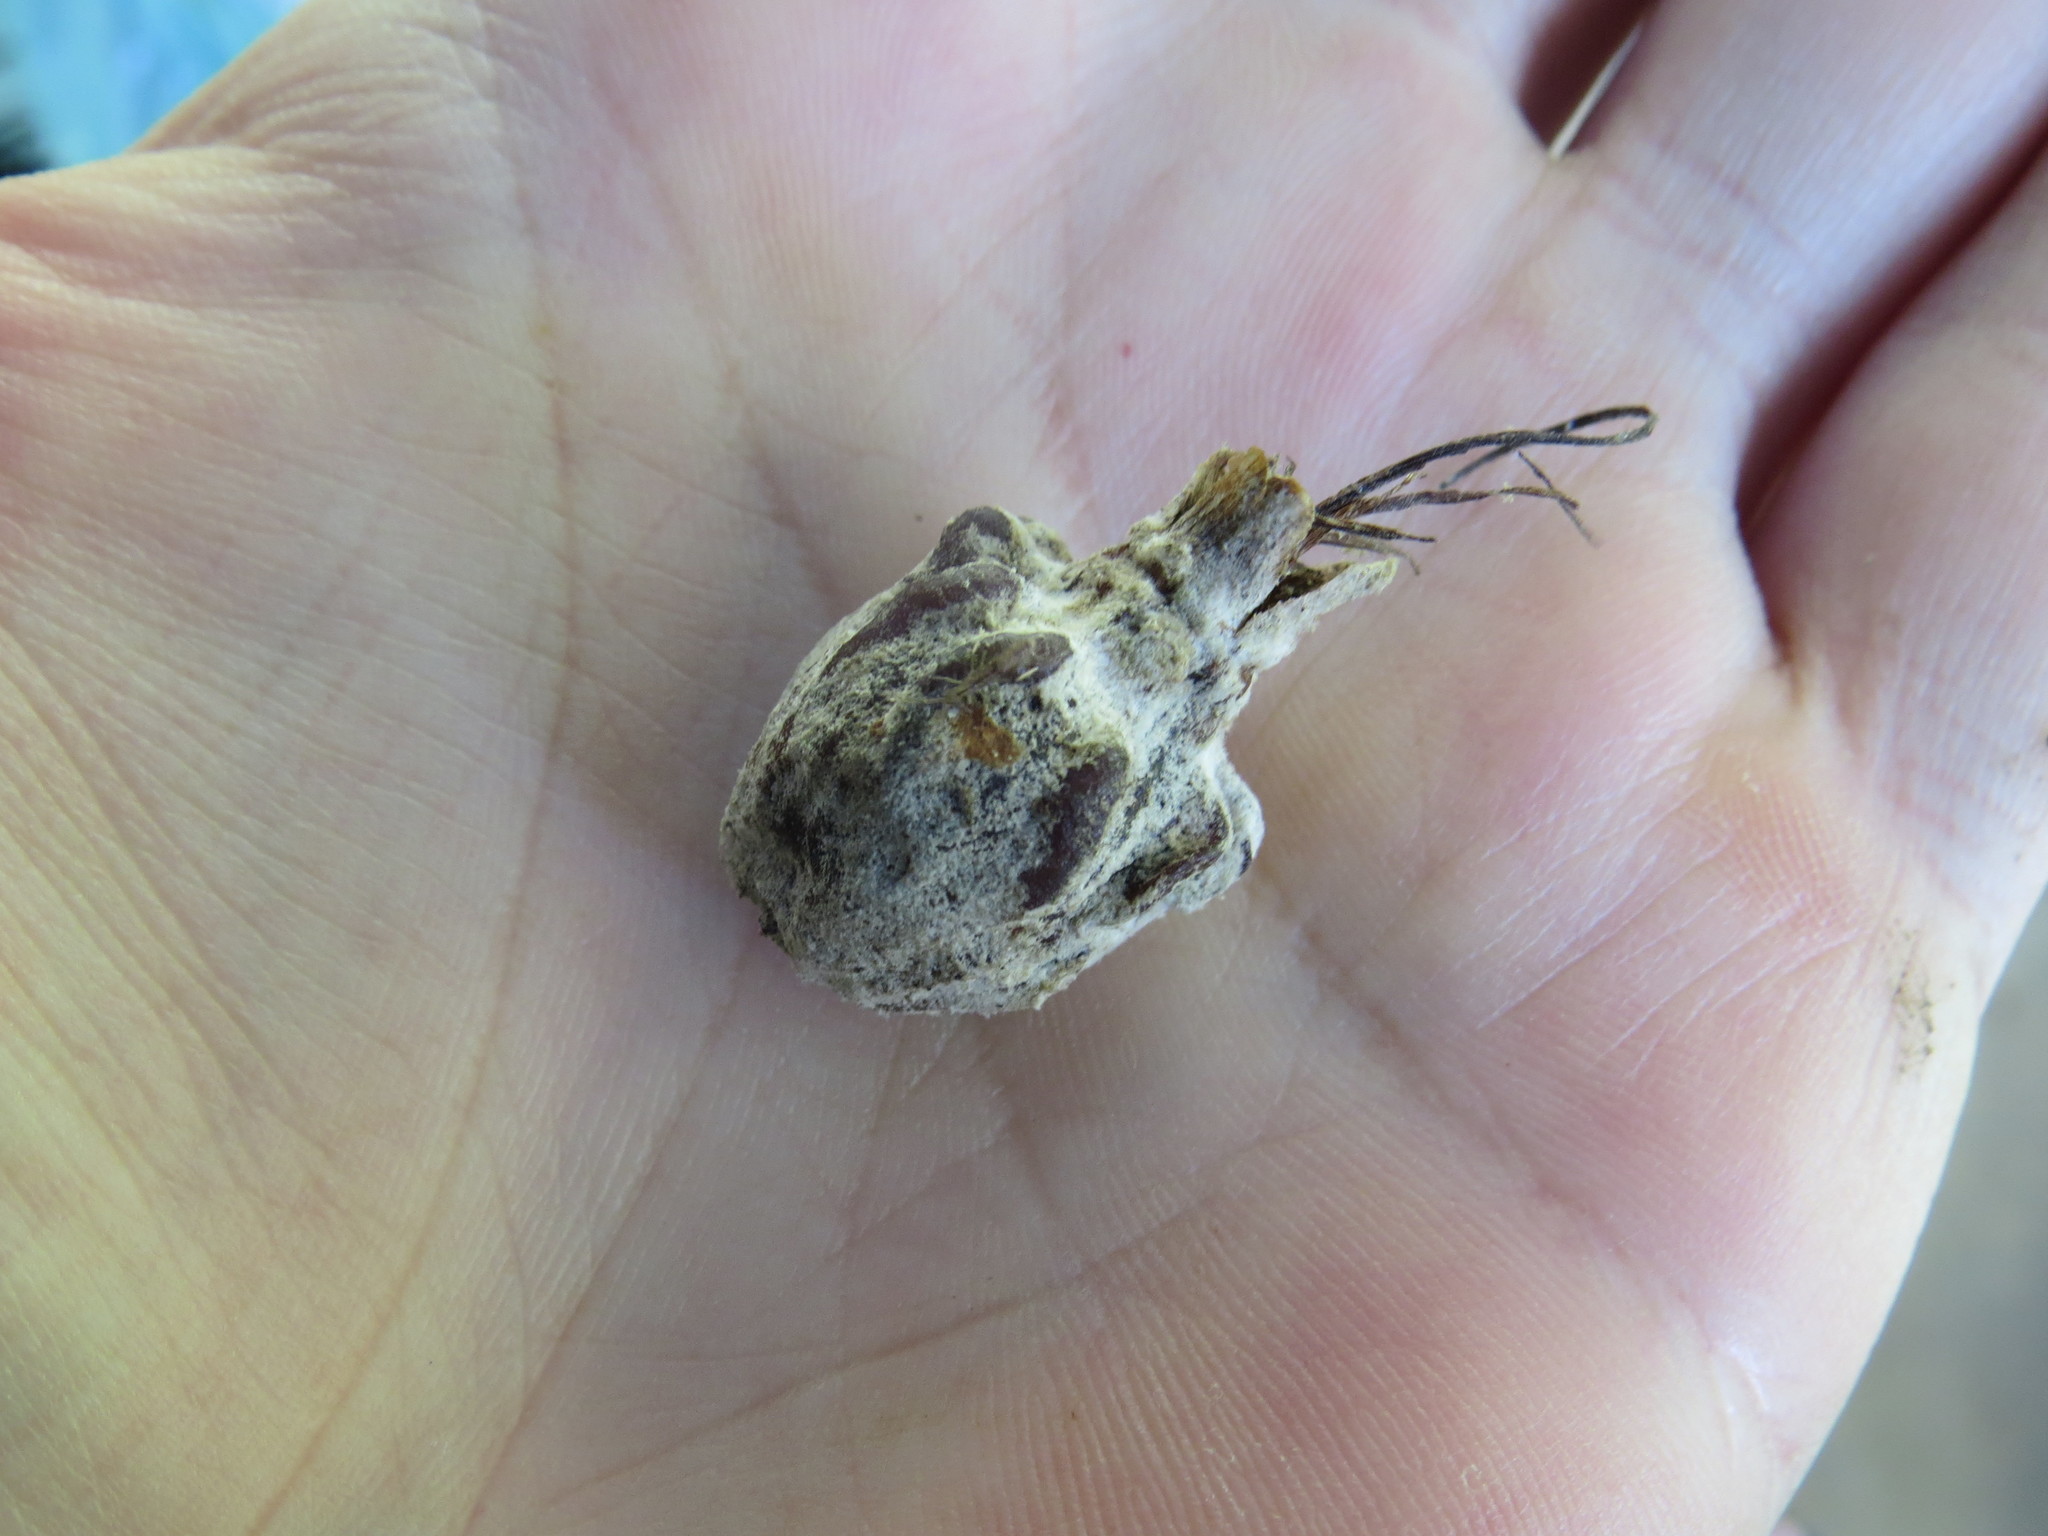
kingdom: Plantae
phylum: Tracheophyta
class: Liliopsida
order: Poales
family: Bromeliaceae
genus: Billbergia
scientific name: Billbergia zebrina
